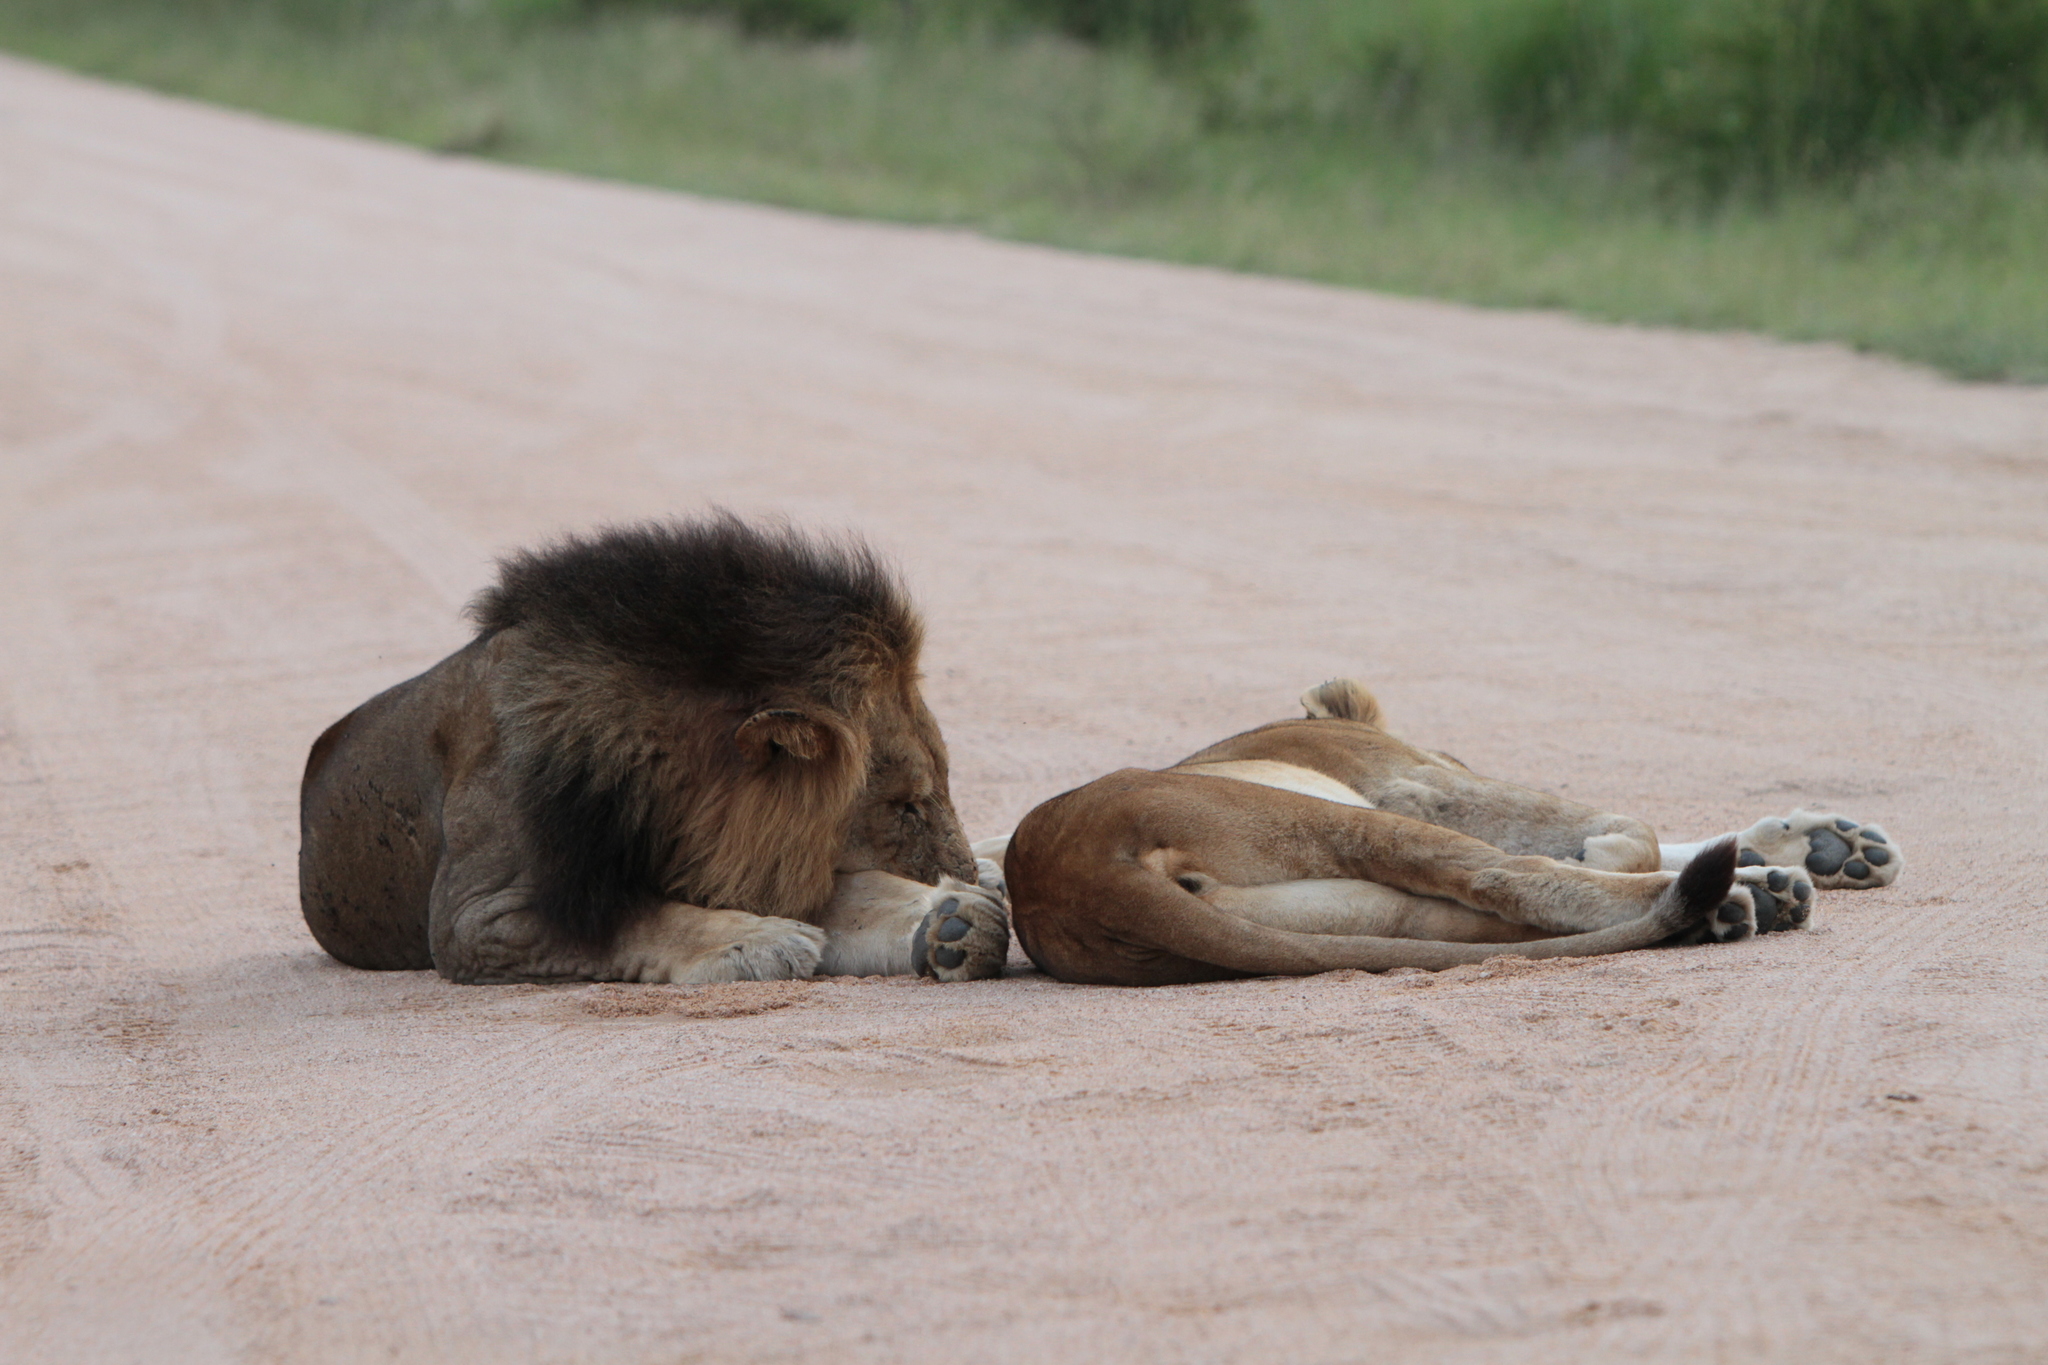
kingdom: Animalia
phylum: Chordata
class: Mammalia
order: Carnivora
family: Felidae
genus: Panthera
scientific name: Panthera leo
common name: Lion
